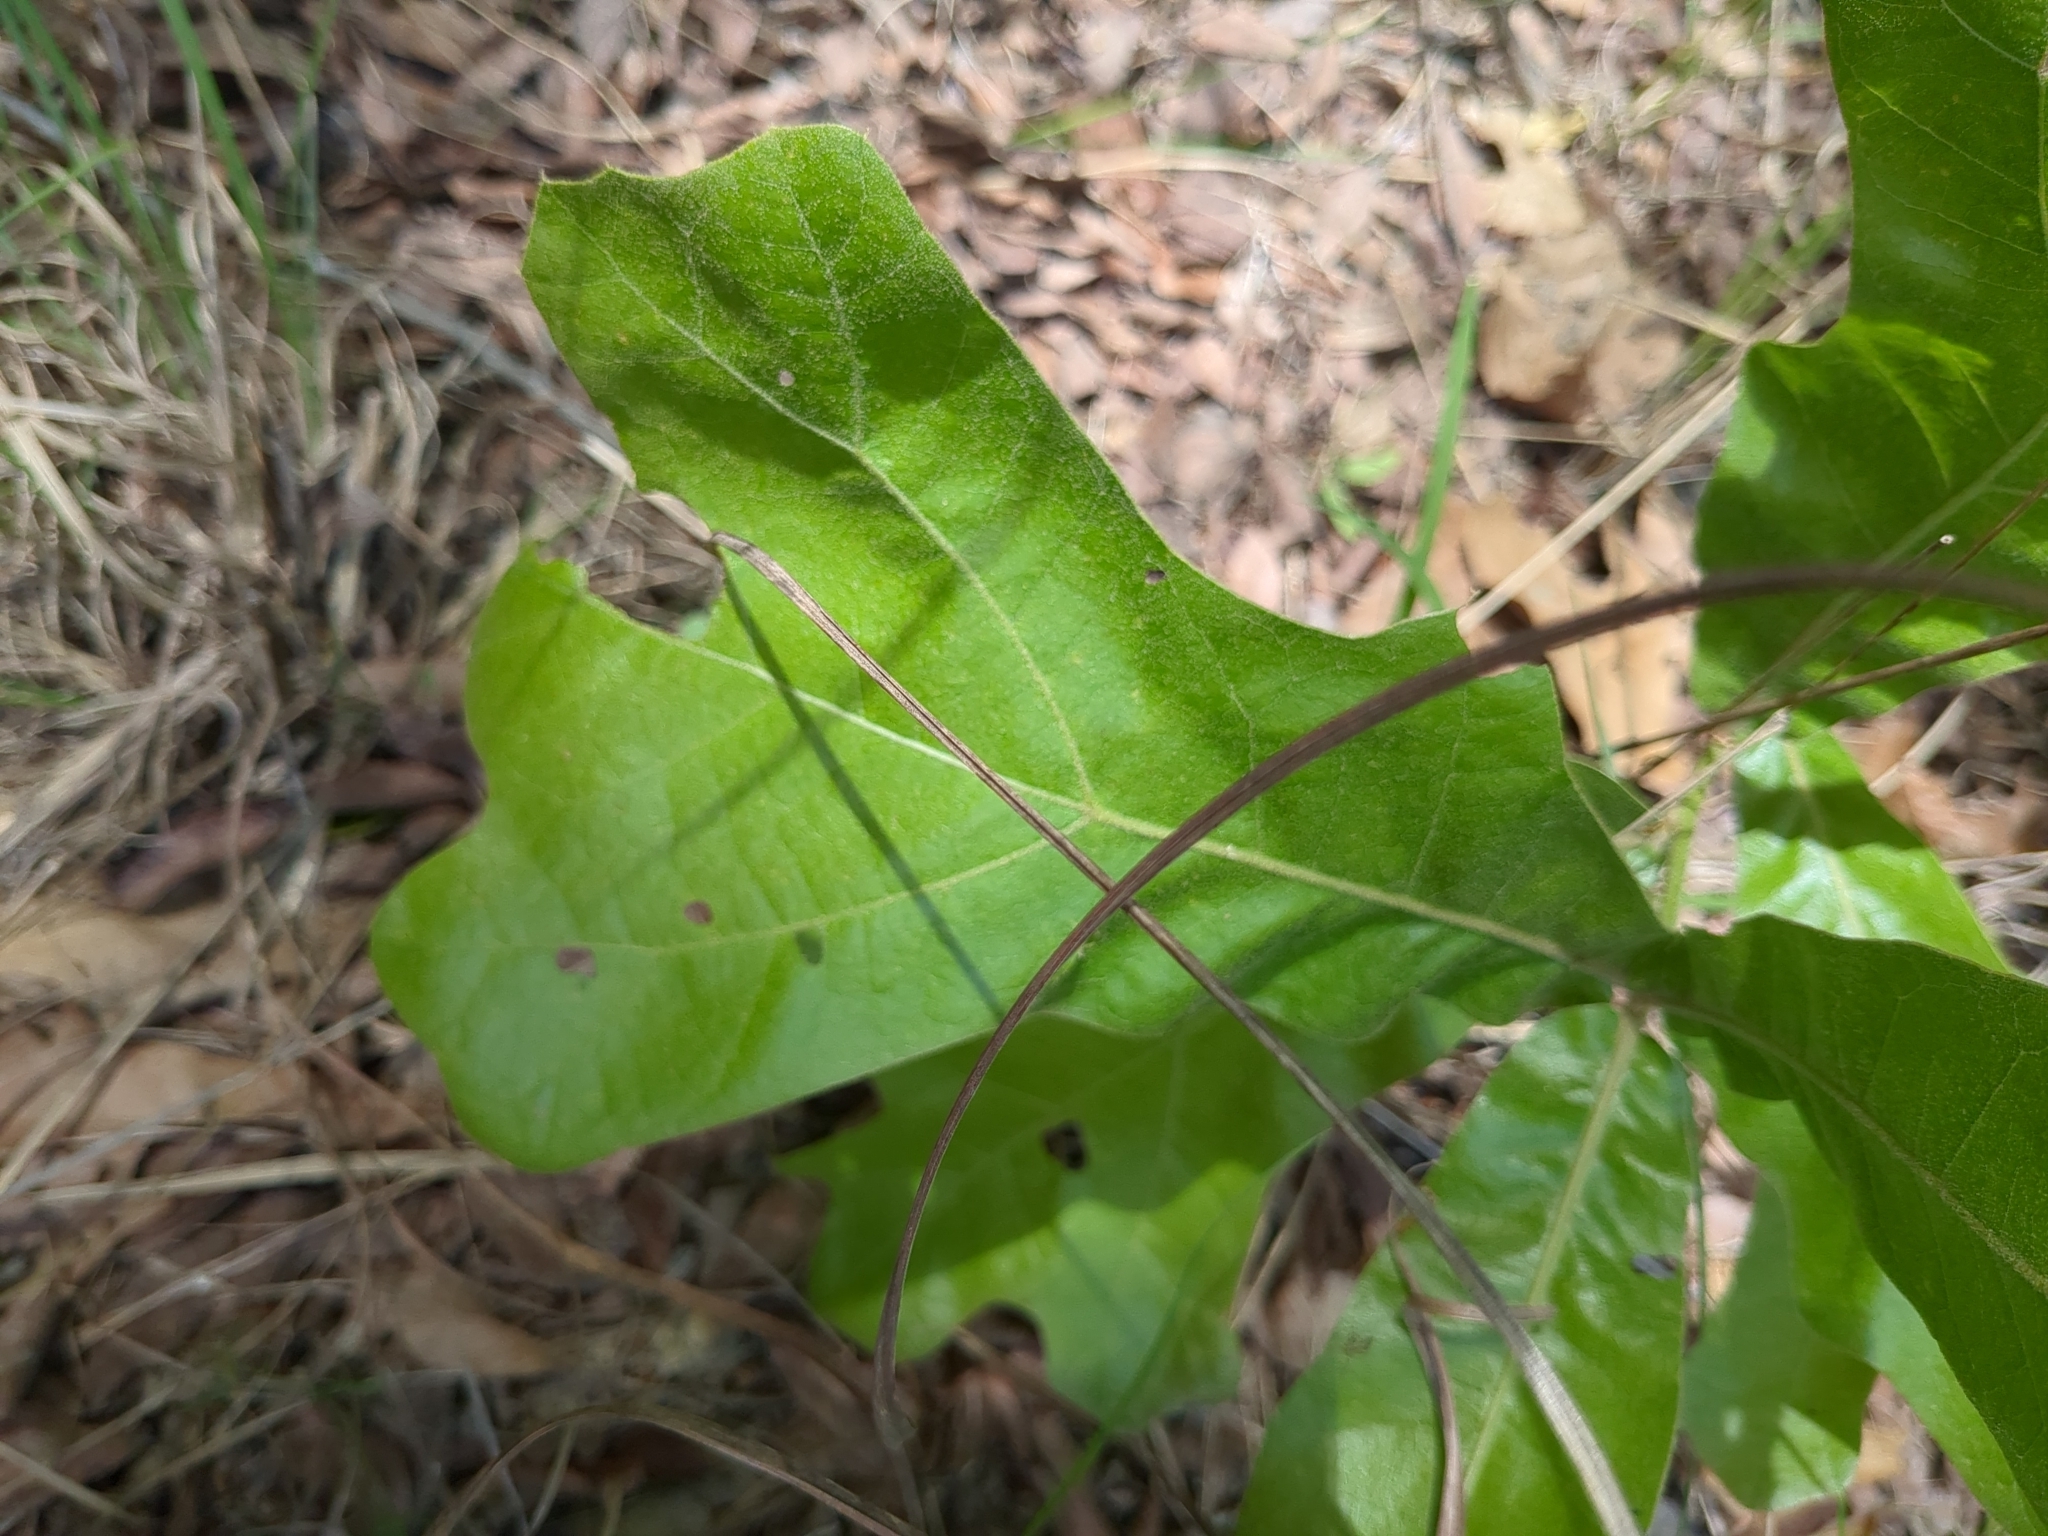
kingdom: Plantae
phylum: Tracheophyta
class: Magnoliopsida
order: Fagales
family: Fagaceae
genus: Quercus
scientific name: Quercus marilandica
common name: Blackjack oak
